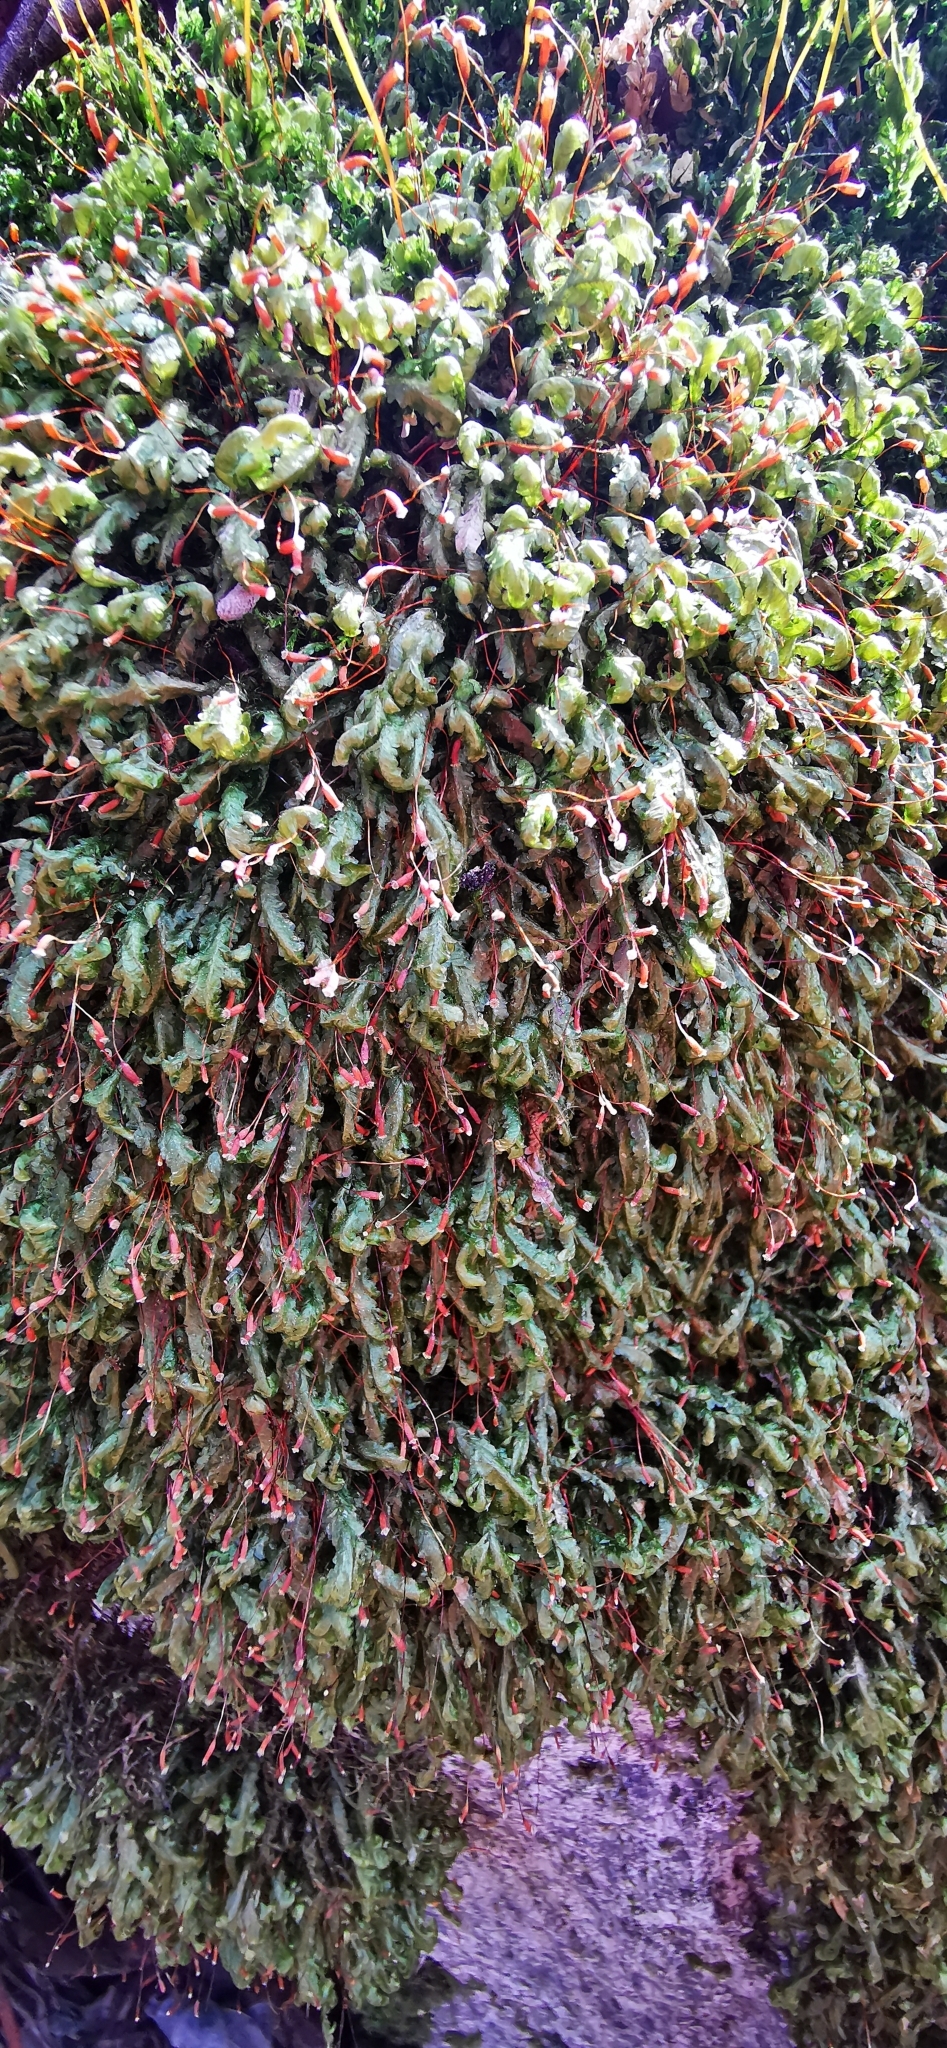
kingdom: Plantae
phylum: Bryophyta
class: Bryopsida
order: Hypnales
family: Neckeraceae
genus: Homalia
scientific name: Homalia trichomanoides
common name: Lime homalia moss
